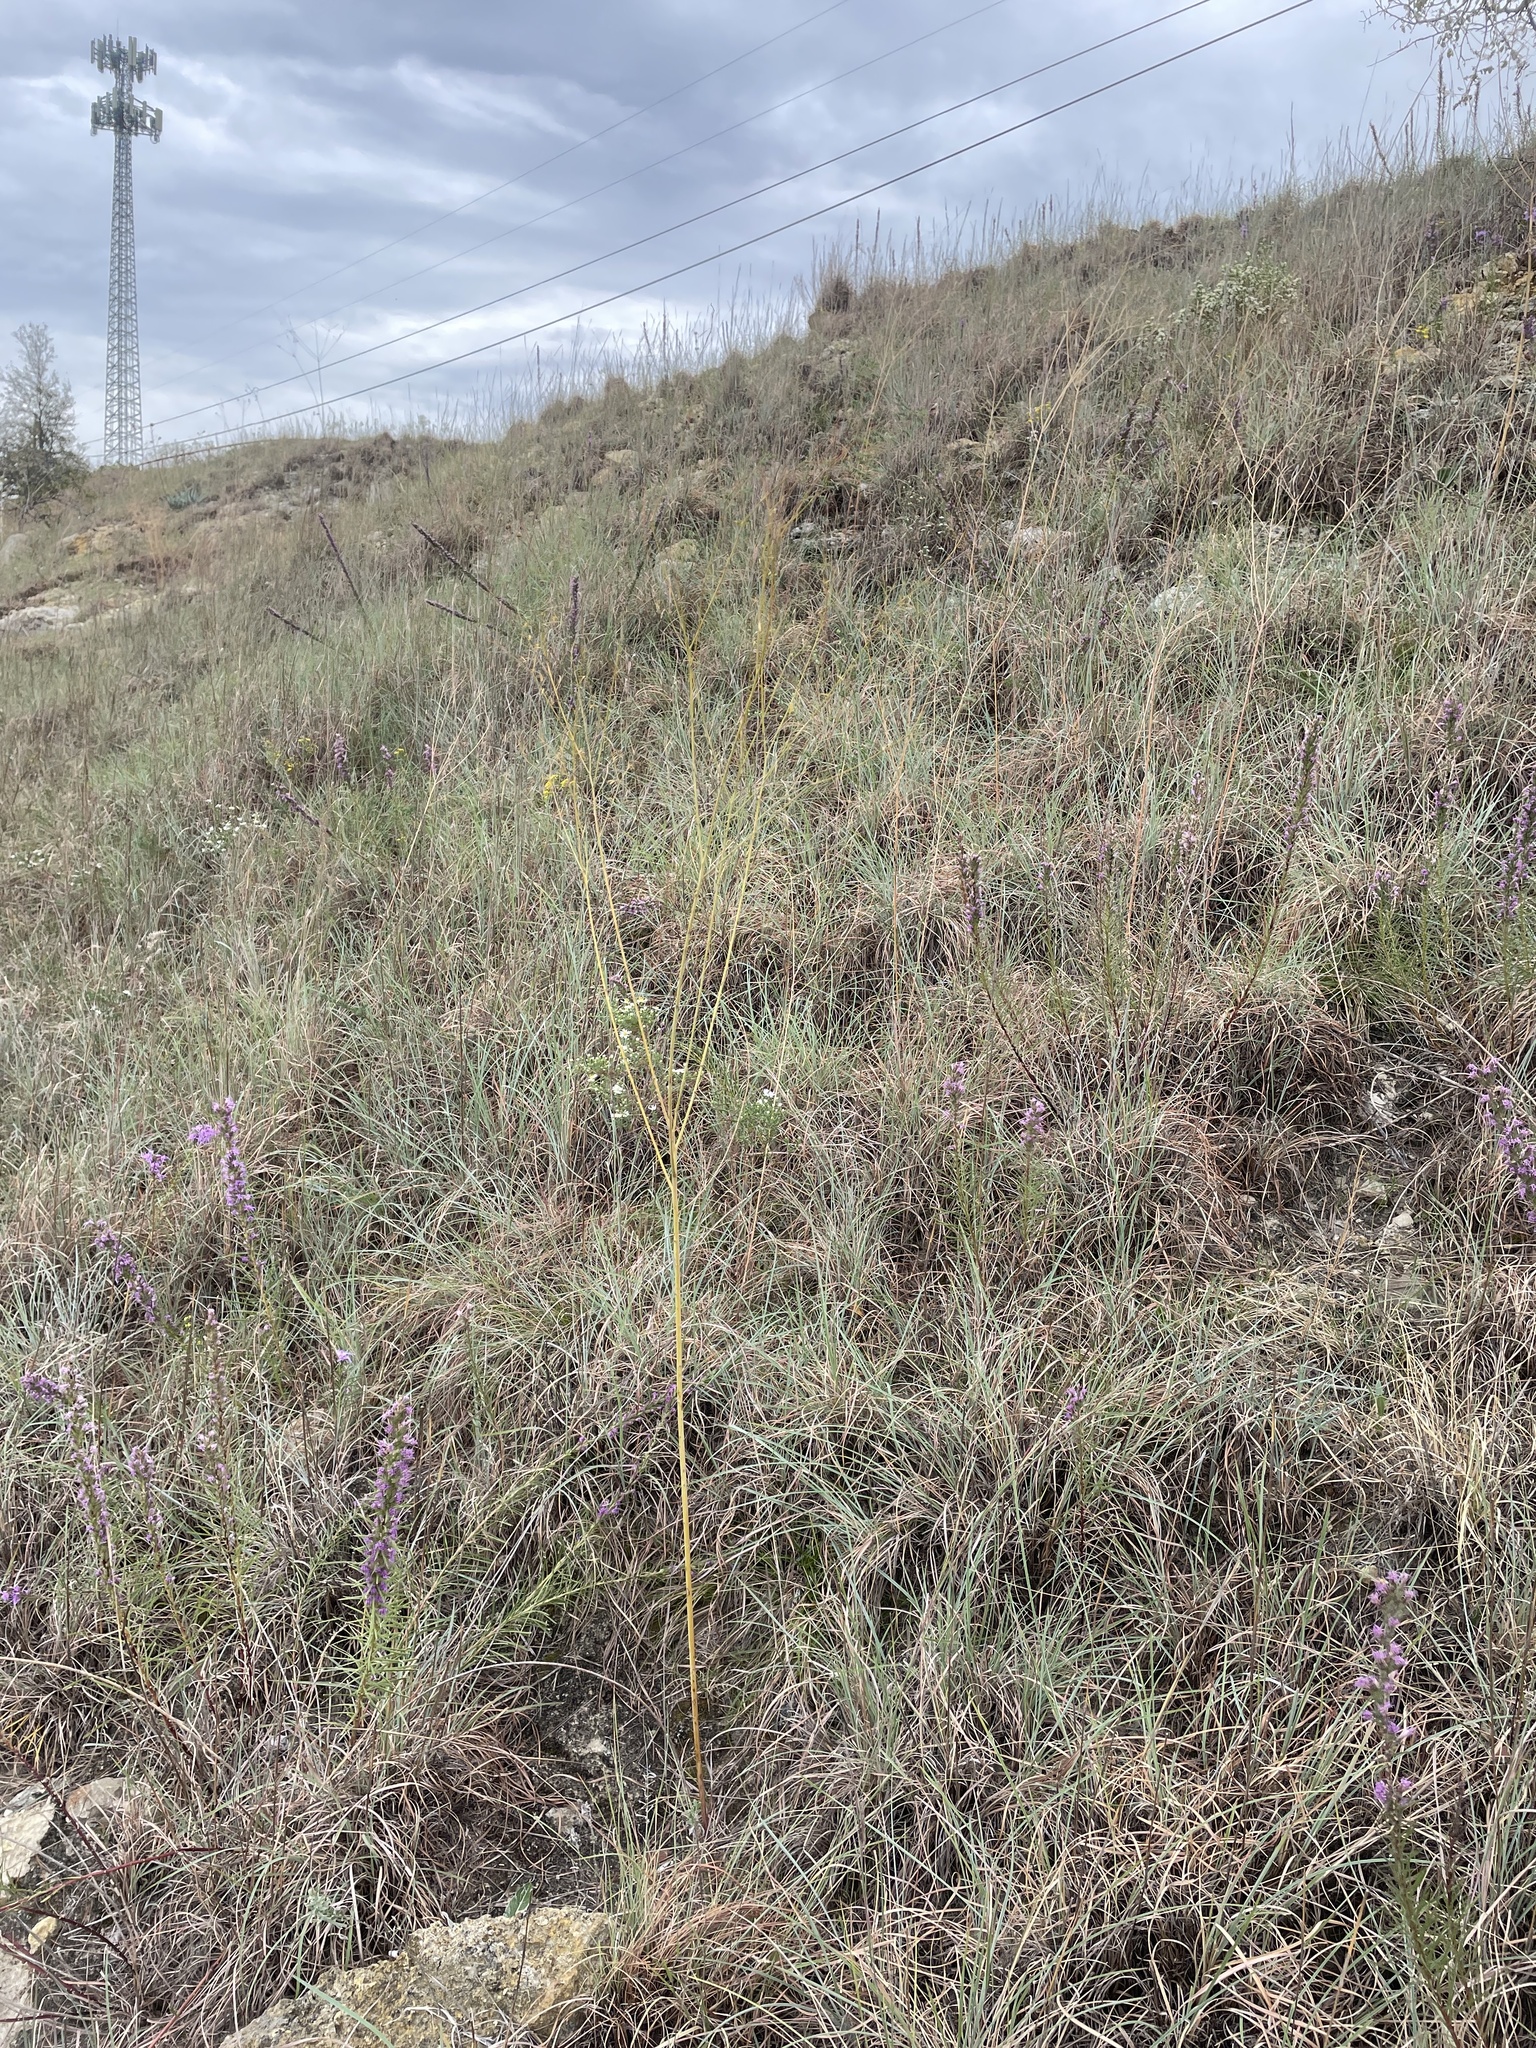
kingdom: Plantae
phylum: Tracheophyta
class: Magnoliopsida
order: Fabales
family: Fabaceae
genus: Dalea
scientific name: Dalea enneandra
